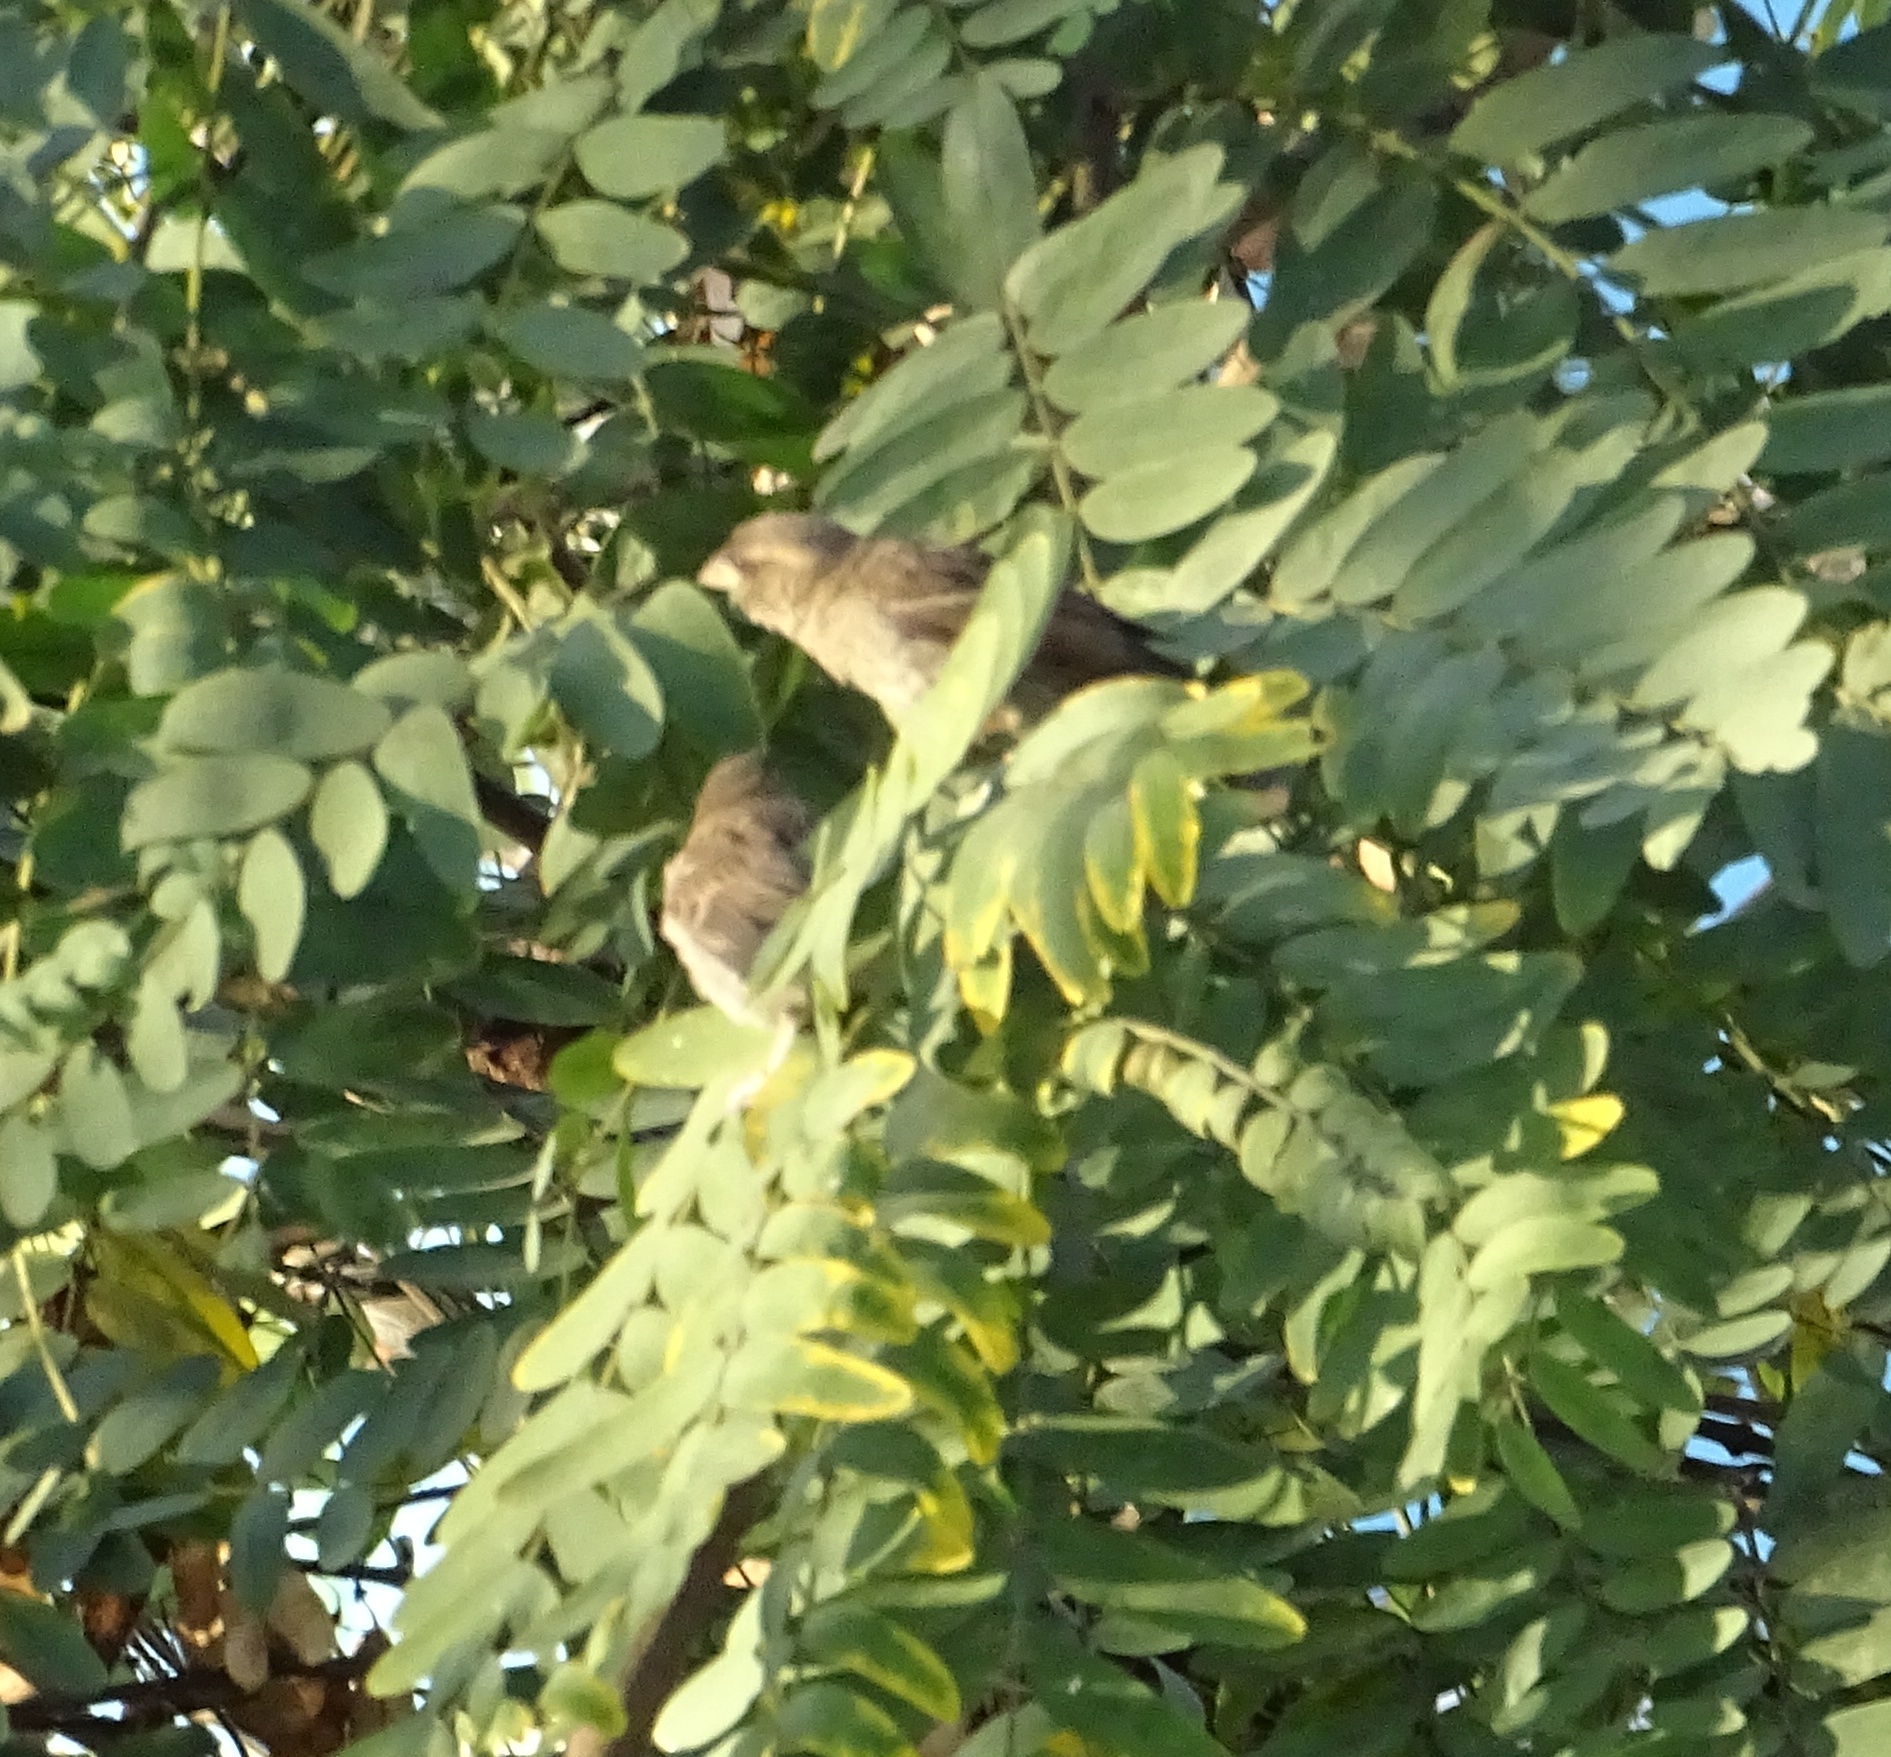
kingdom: Animalia
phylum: Chordata
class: Aves
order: Passeriformes
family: Passeridae
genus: Passer
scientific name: Passer domesticus
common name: House sparrow
